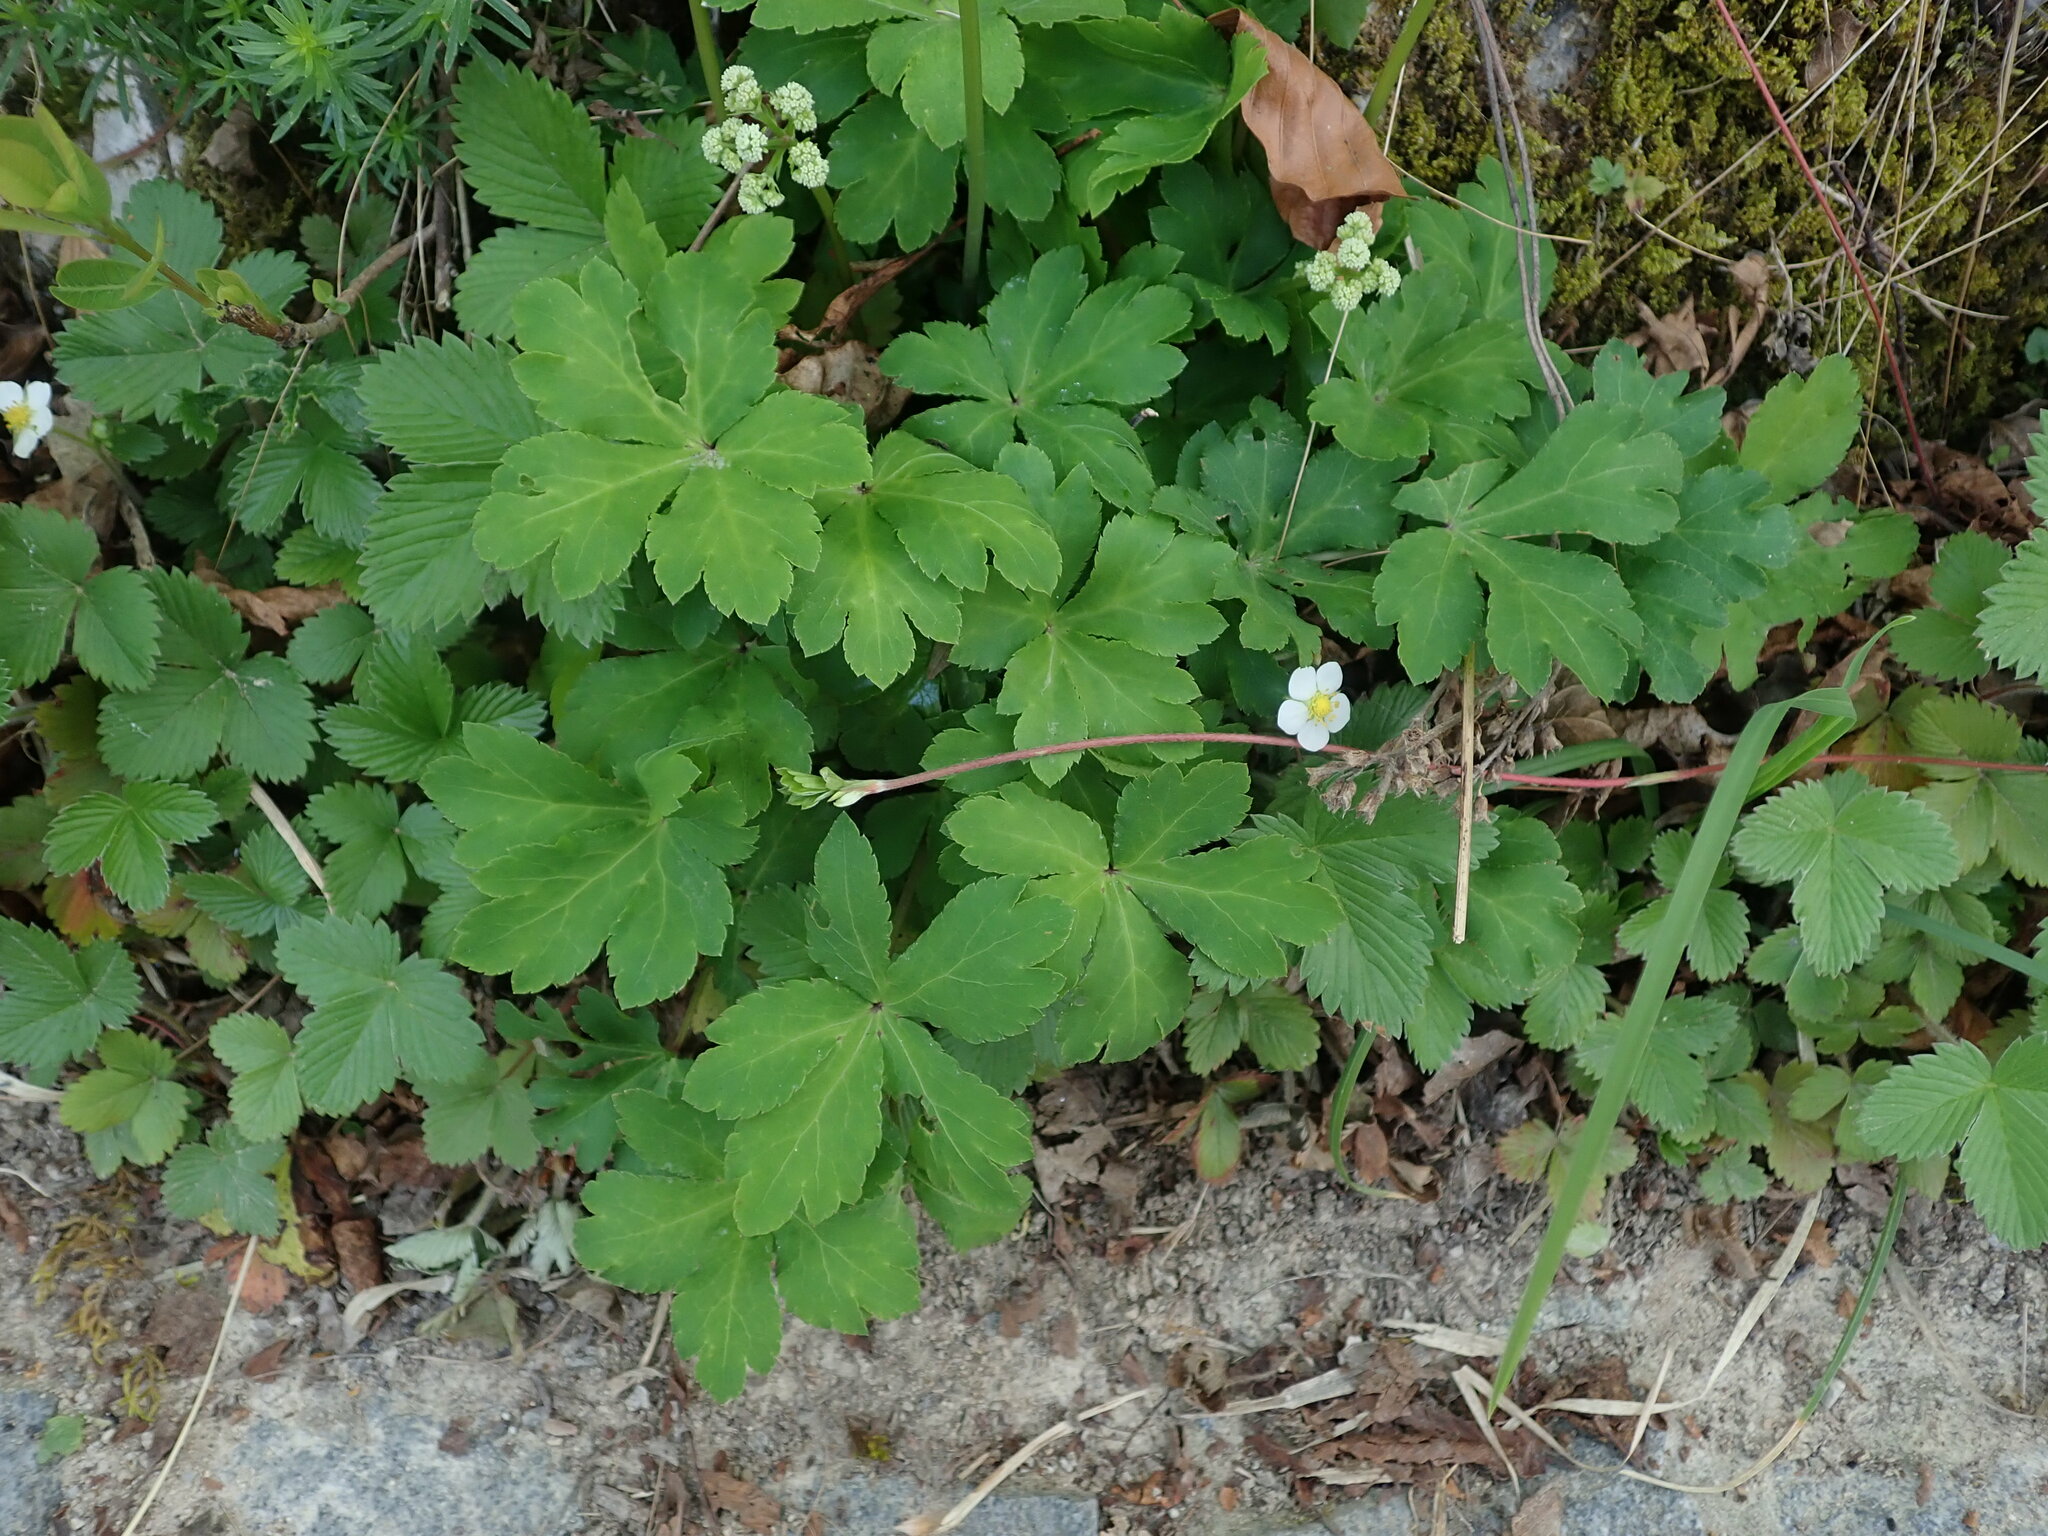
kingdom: Plantae
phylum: Tracheophyta
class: Magnoliopsida
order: Apiales
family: Apiaceae
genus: Sanicula
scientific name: Sanicula europaea
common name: Sanicle
